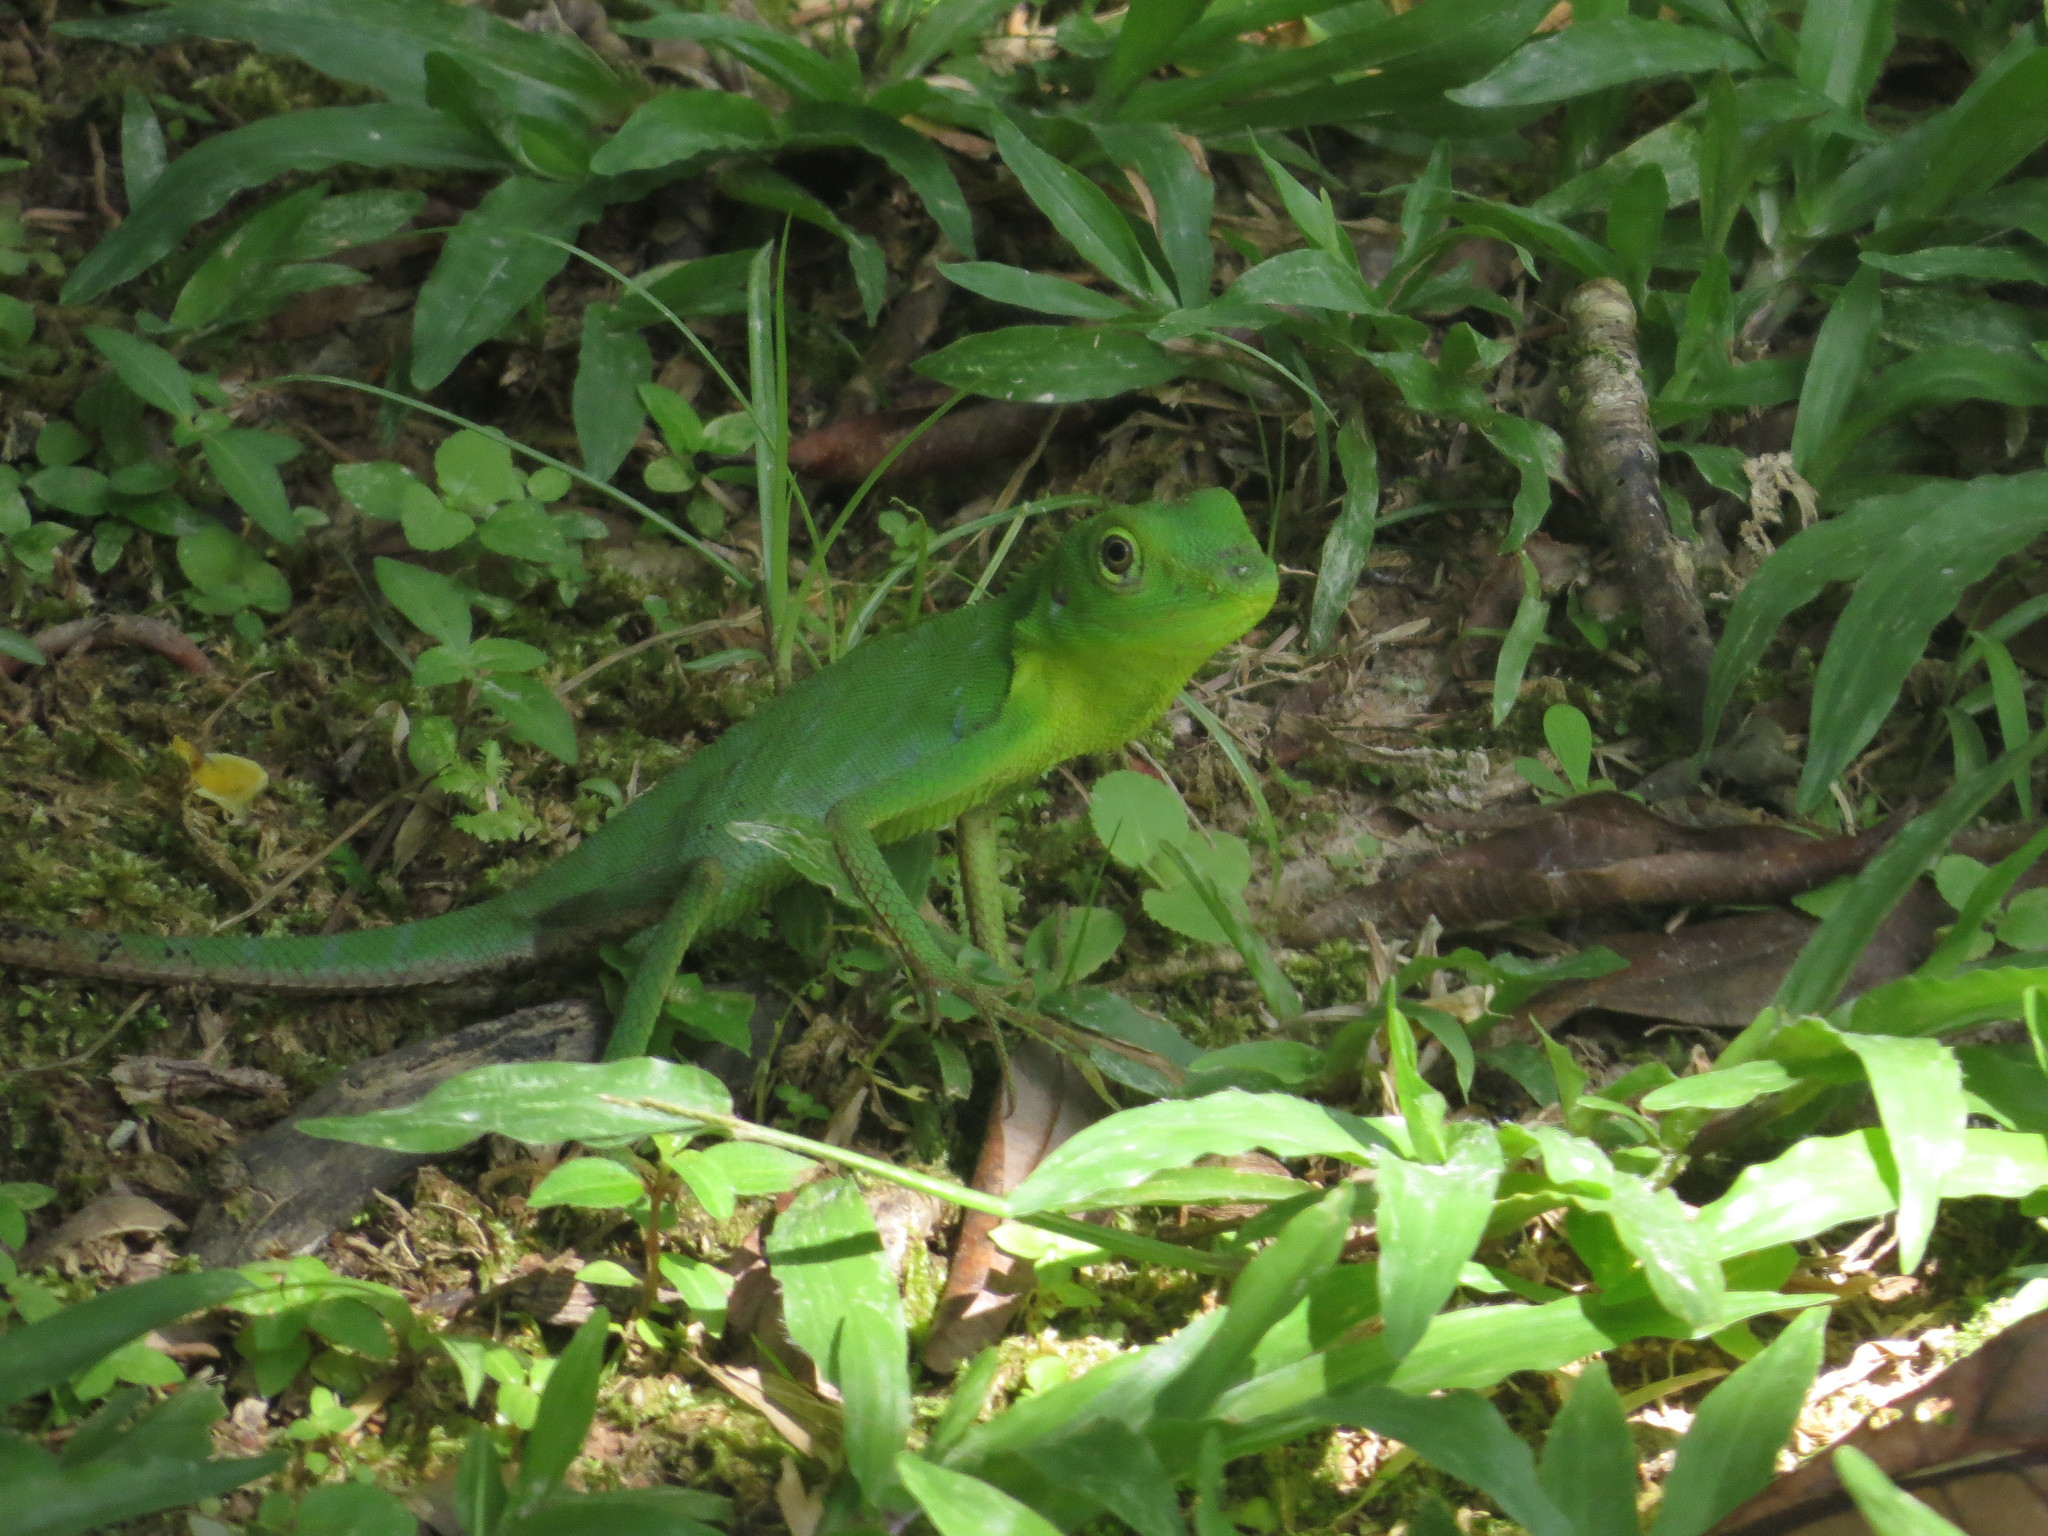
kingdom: Animalia
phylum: Chordata
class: Squamata
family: Agamidae
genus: Bronchocela
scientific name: Bronchocela cristatella
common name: Green crested lizard
